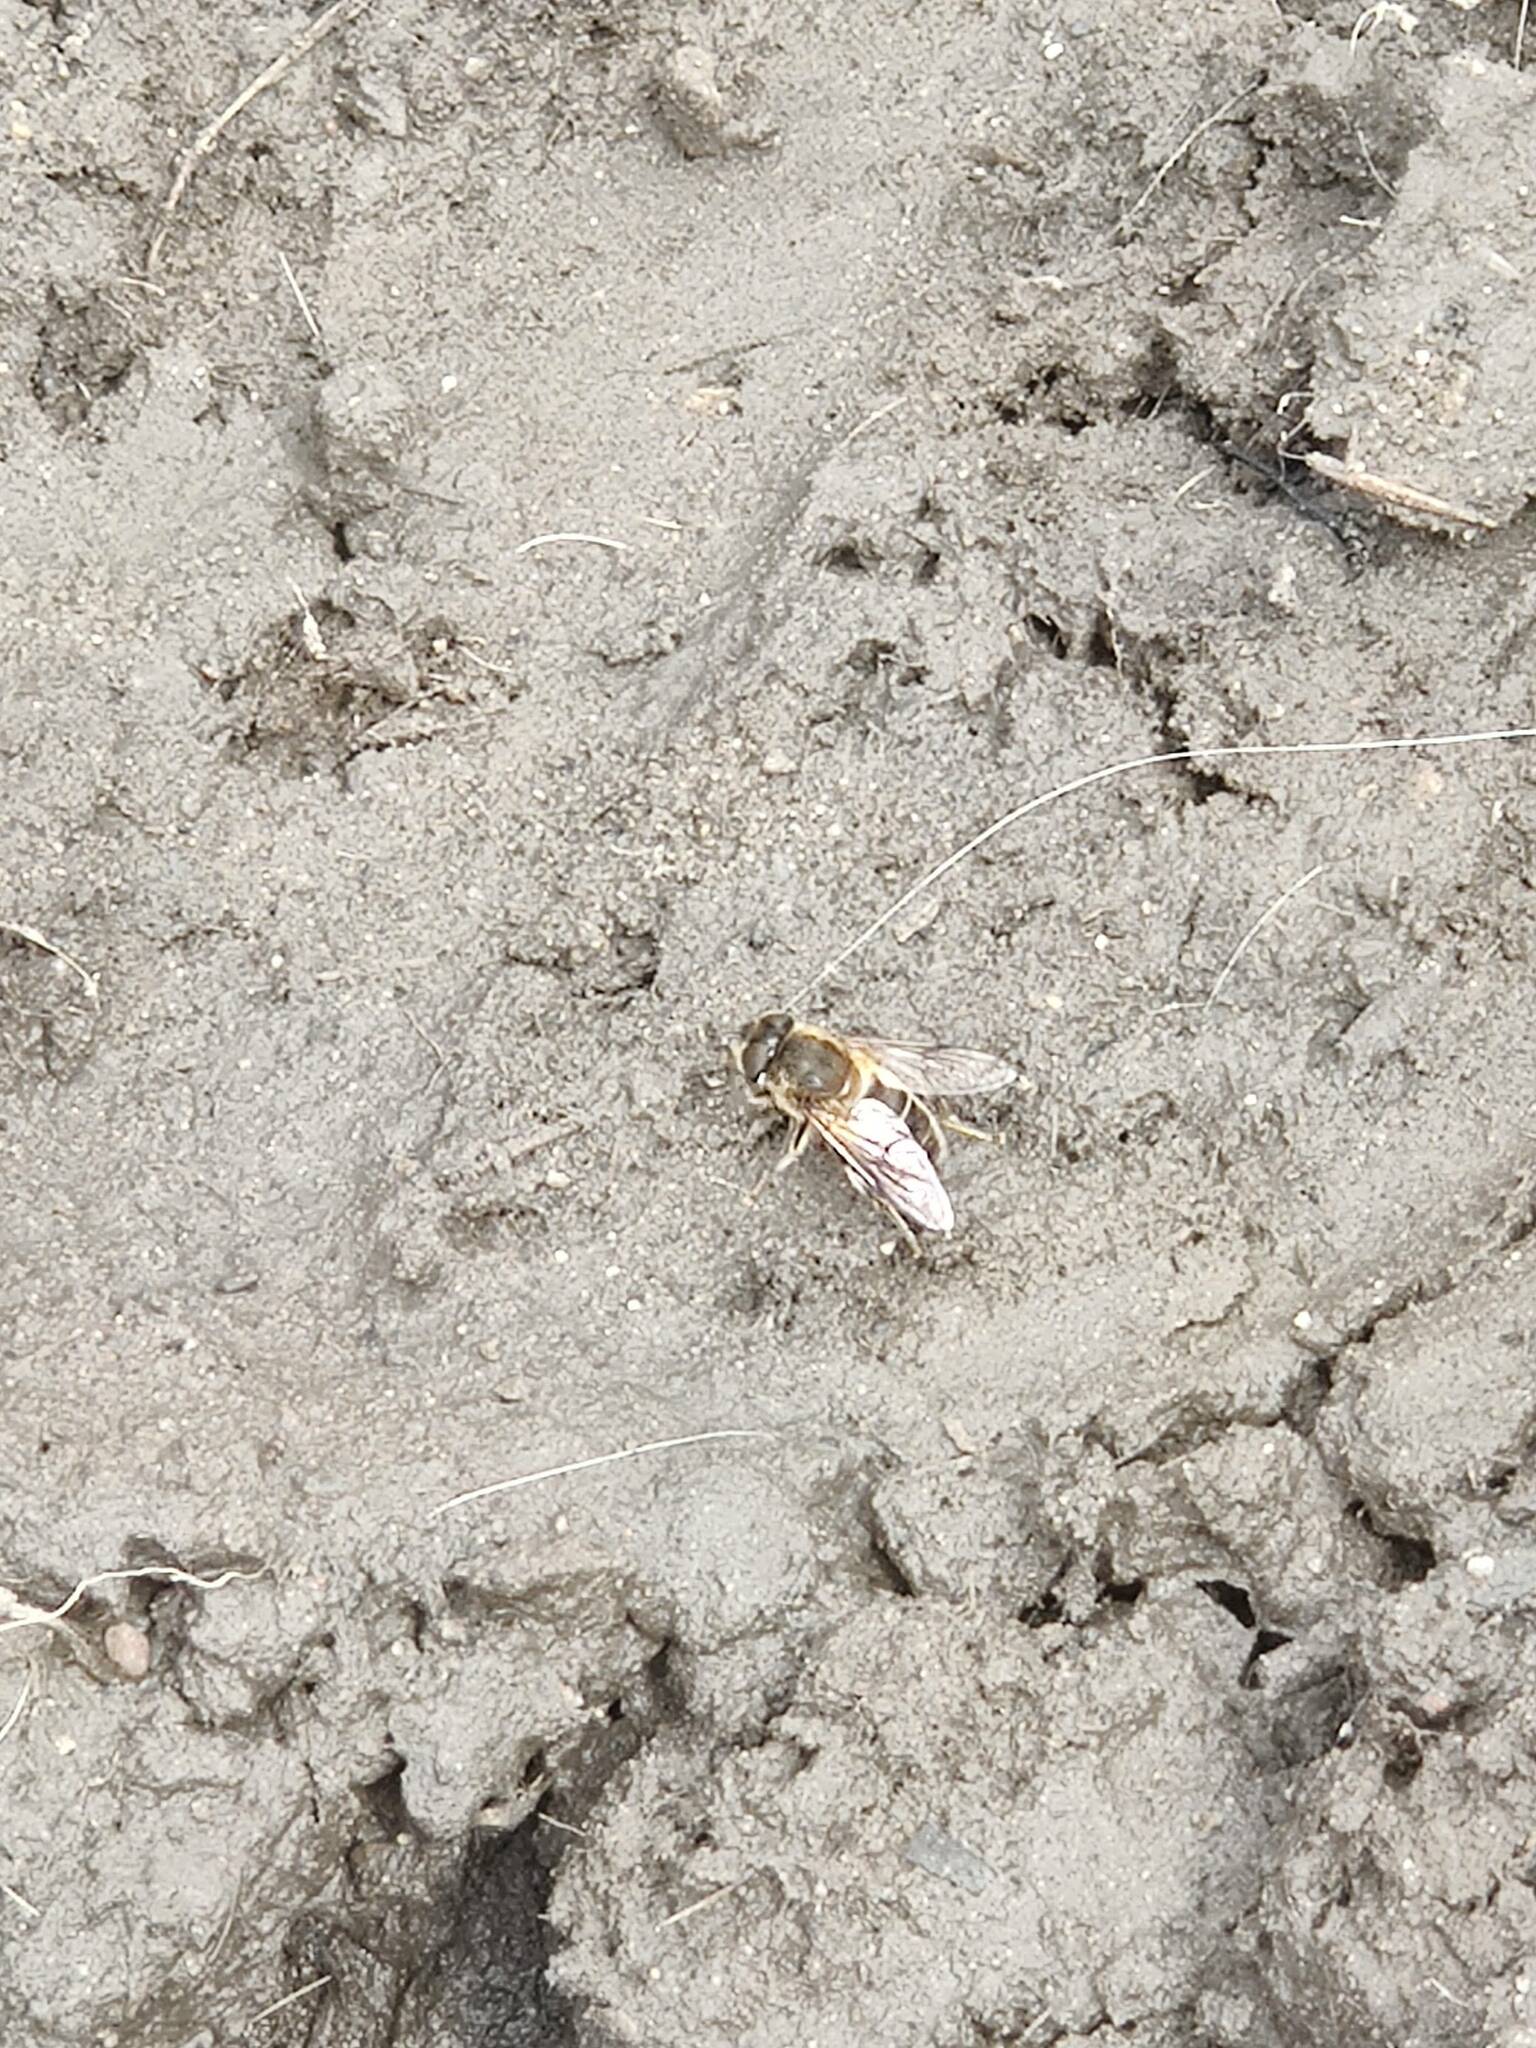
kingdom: Animalia
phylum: Arthropoda
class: Insecta
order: Diptera
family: Syrphidae
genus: Eristalis
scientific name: Eristalis
